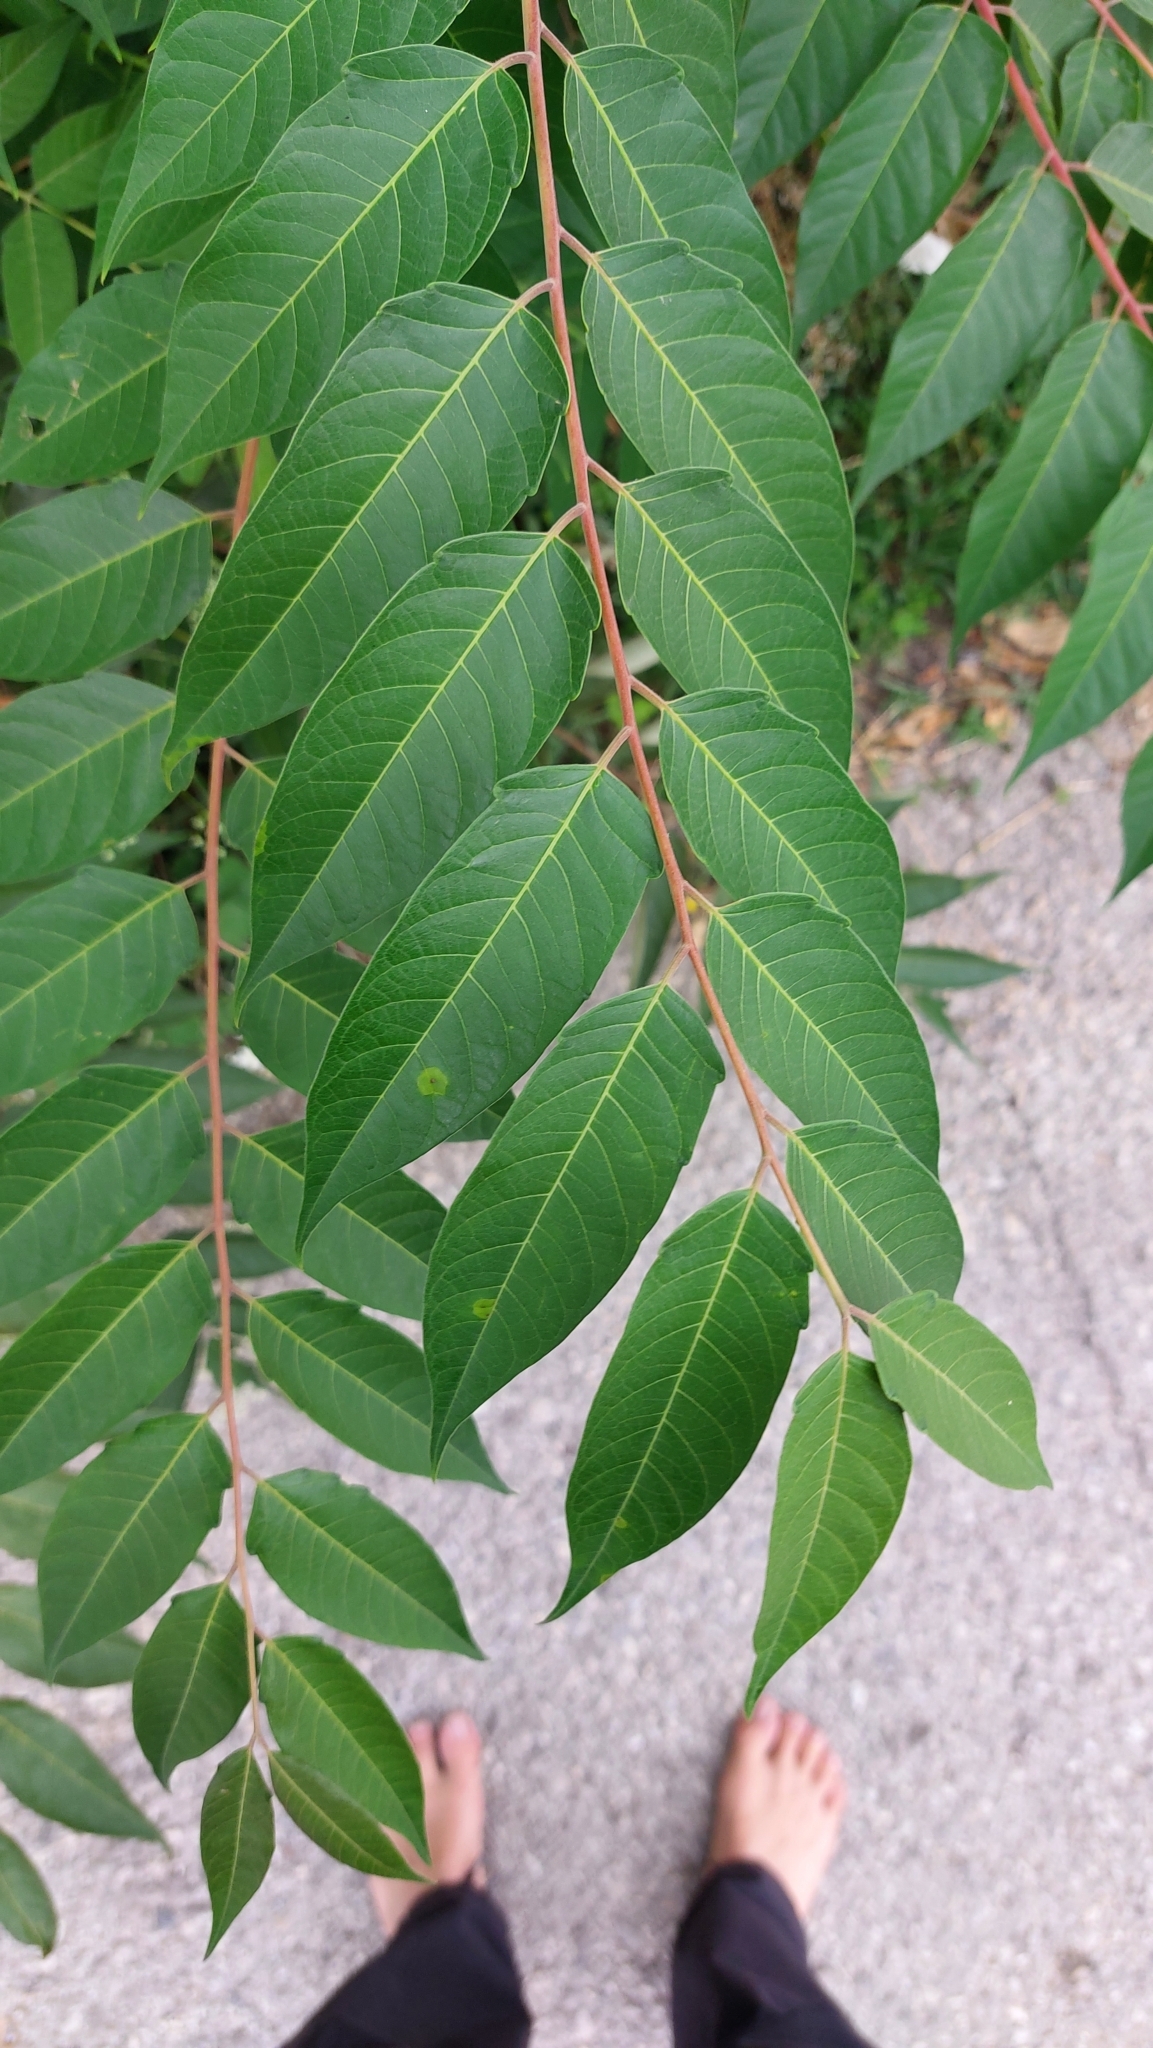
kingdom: Plantae
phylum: Tracheophyta
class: Magnoliopsida
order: Sapindales
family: Simaroubaceae
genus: Ailanthus
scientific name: Ailanthus altissima
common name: Tree-of-heaven
